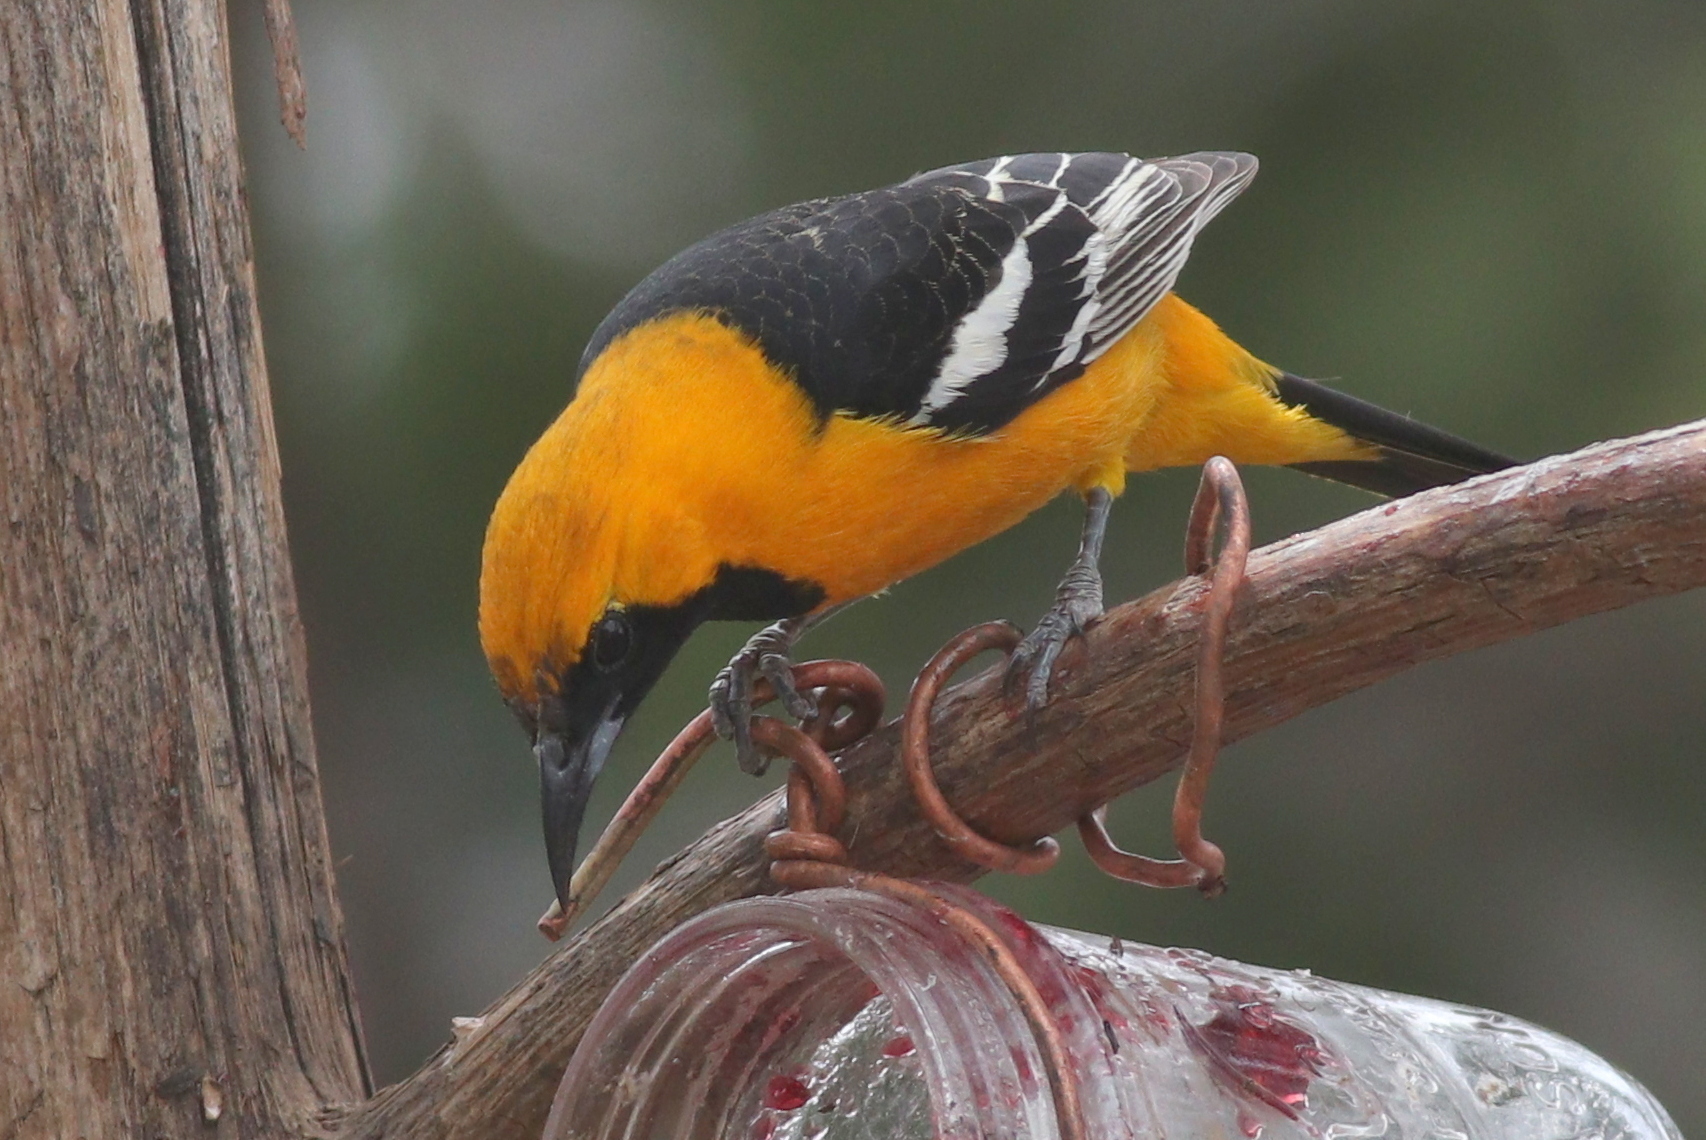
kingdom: Animalia
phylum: Chordata
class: Aves
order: Passeriformes
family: Icteridae
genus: Icterus
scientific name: Icterus cucullatus
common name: Hooded oriole
